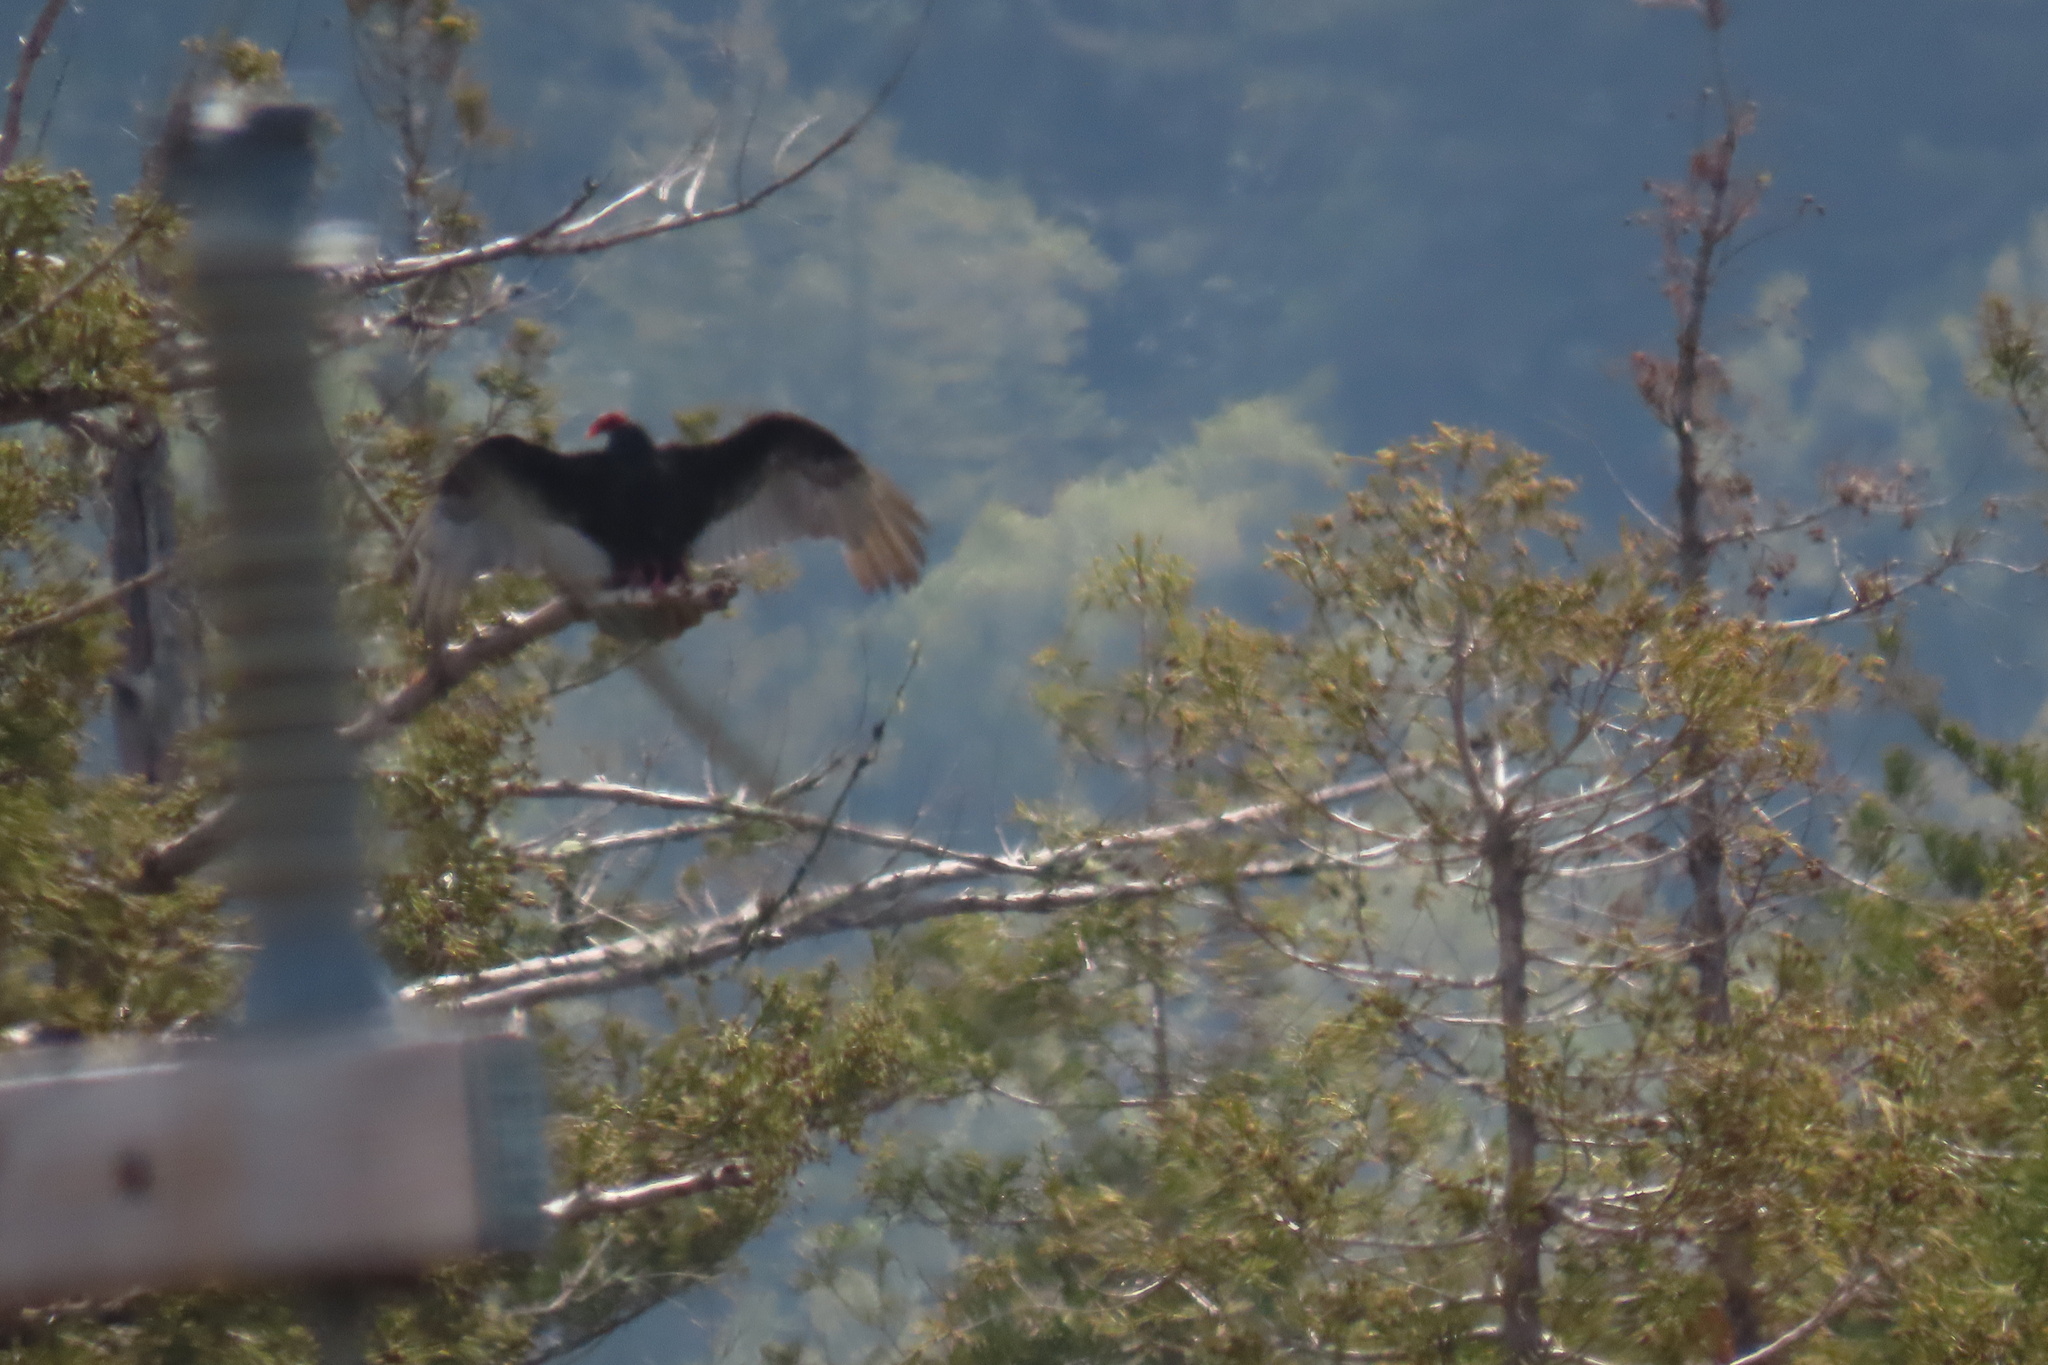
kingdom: Animalia
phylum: Chordata
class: Aves
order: Accipitriformes
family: Cathartidae
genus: Cathartes
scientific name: Cathartes aura
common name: Turkey vulture
